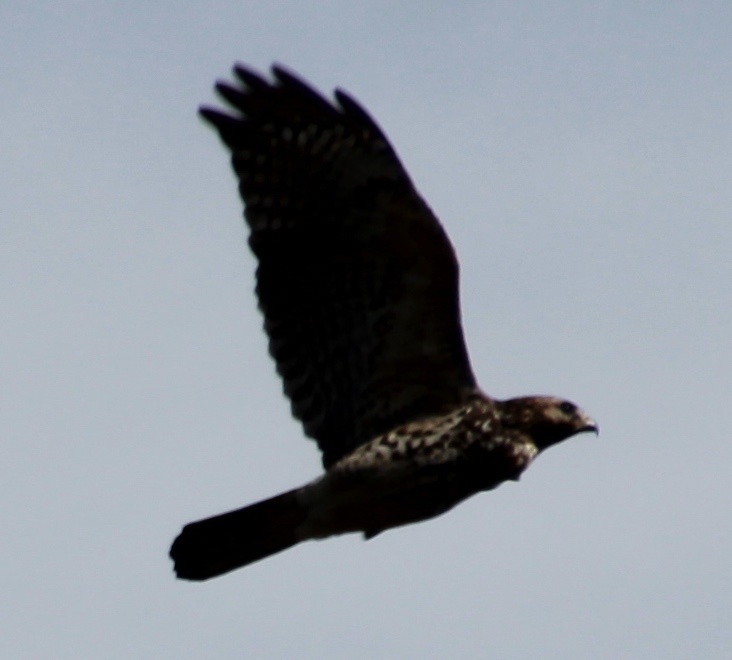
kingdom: Animalia
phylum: Chordata
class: Aves
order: Accipitriformes
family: Accipitridae
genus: Buteo
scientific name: Buteo lineatus
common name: Red-shouldered hawk
